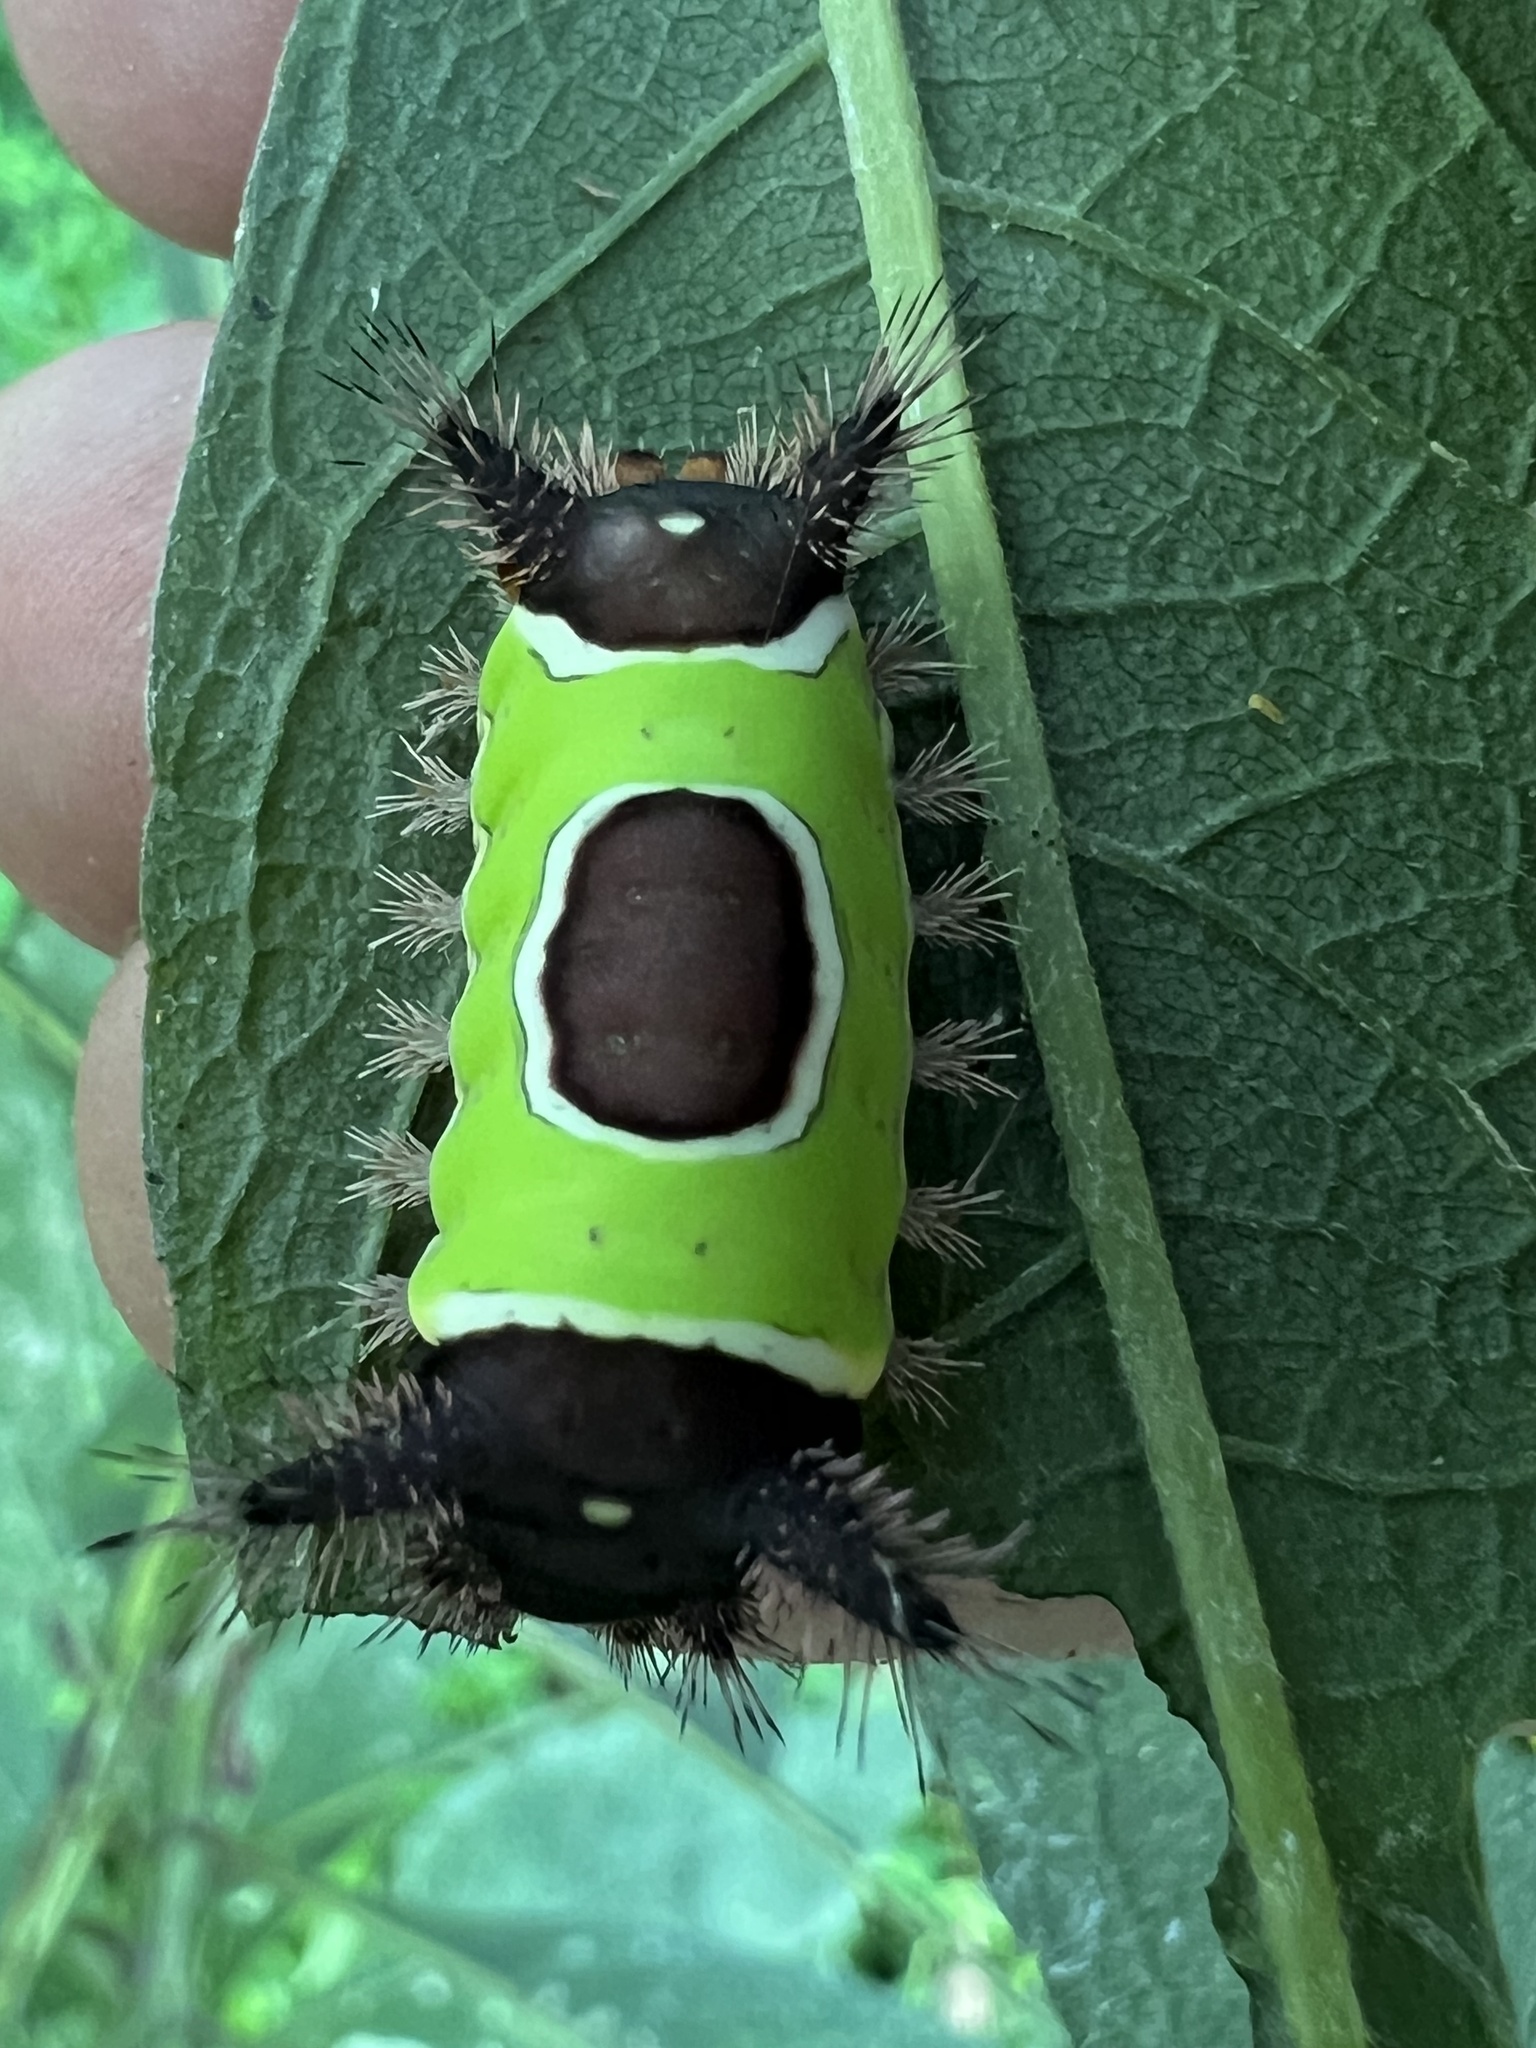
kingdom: Animalia
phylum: Arthropoda
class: Insecta
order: Lepidoptera
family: Limacodidae
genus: Acharia
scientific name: Acharia stimulea
